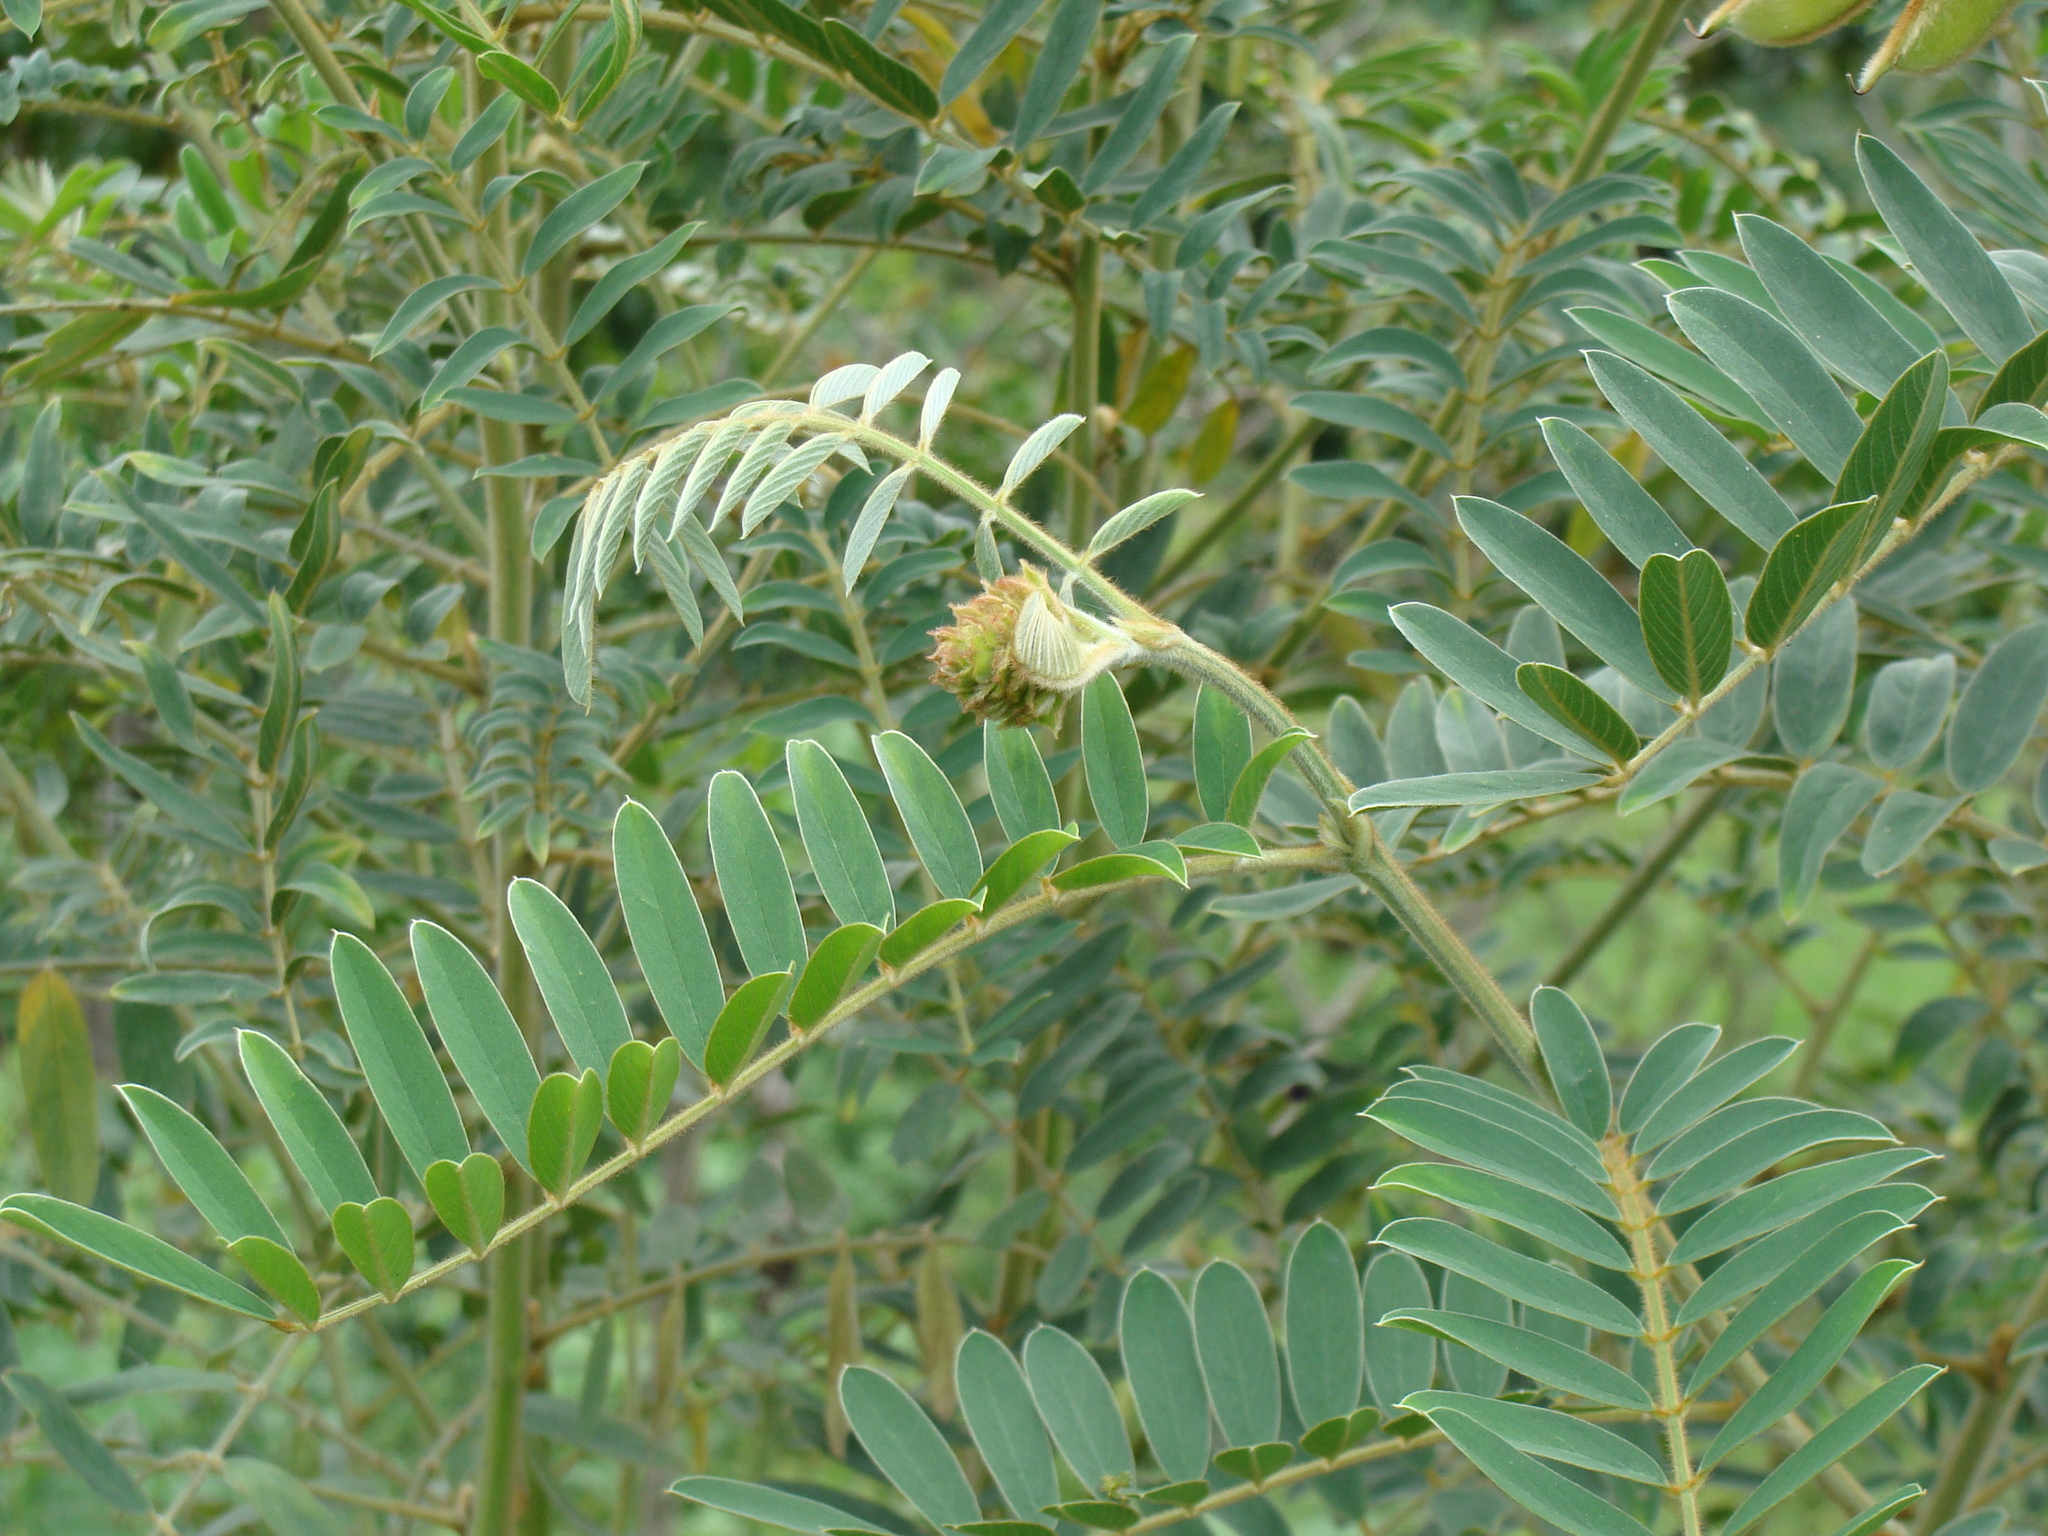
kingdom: Plantae
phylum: Tracheophyta
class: Magnoliopsida
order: Fabales
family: Fabaceae
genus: Tephrosia
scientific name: Tephrosia vogelii
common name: Vogel tephrosia
